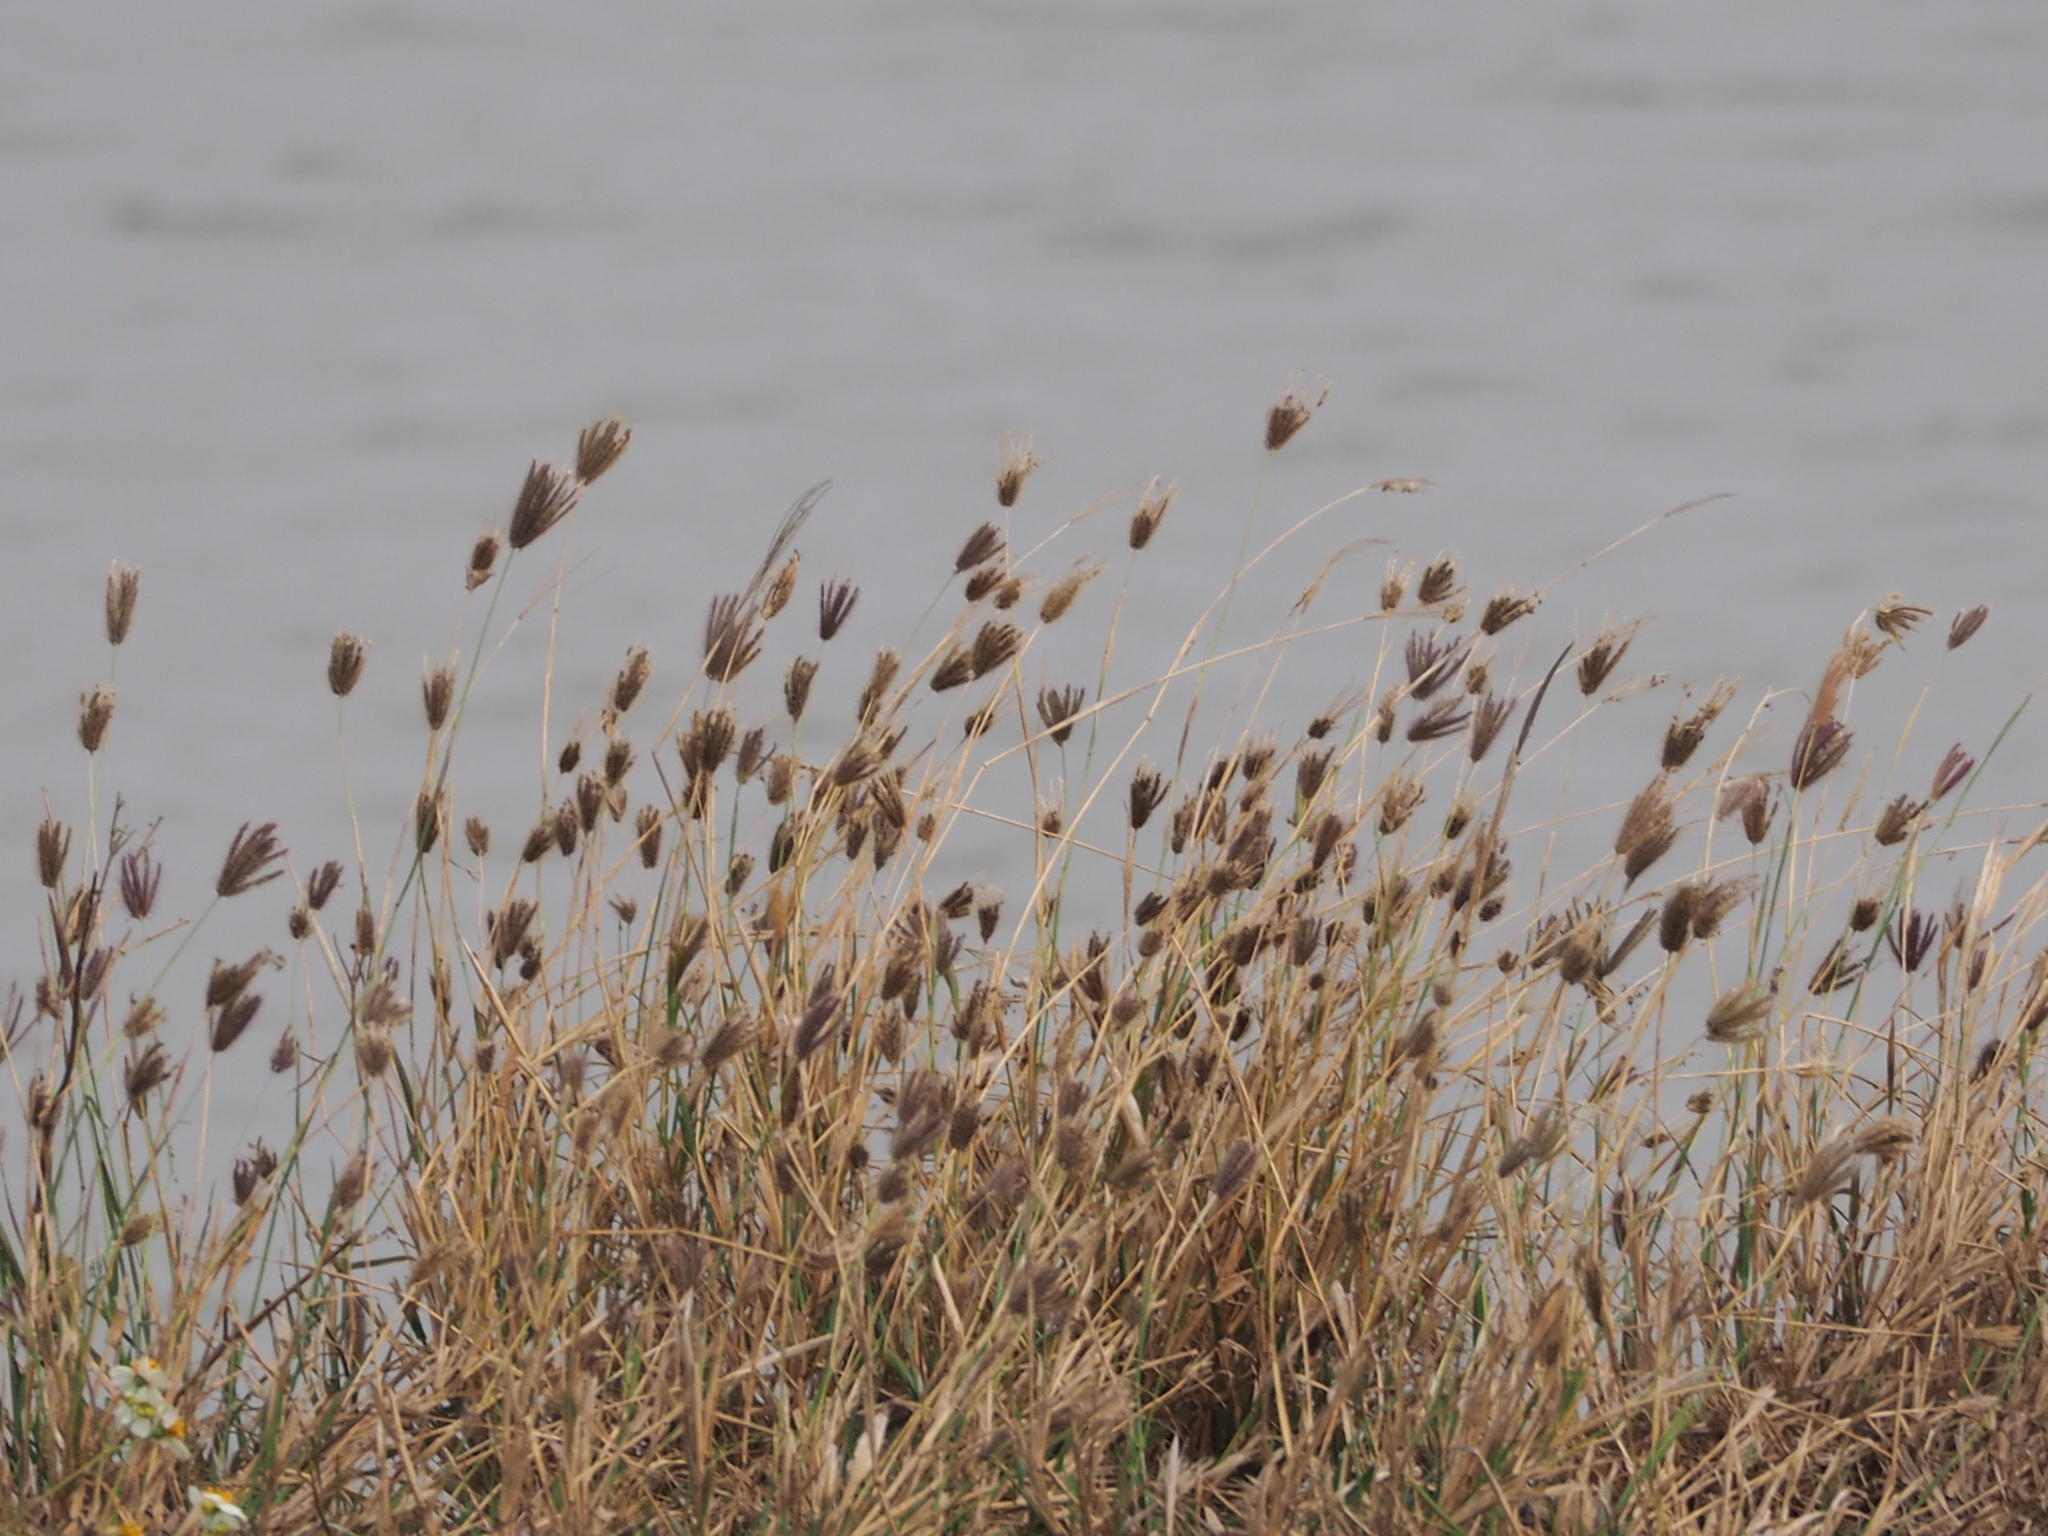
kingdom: Plantae
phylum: Tracheophyta
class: Liliopsida
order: Poales
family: Poaceae
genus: Chloris
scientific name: Chloris barbata
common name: Swollen fingergrass
